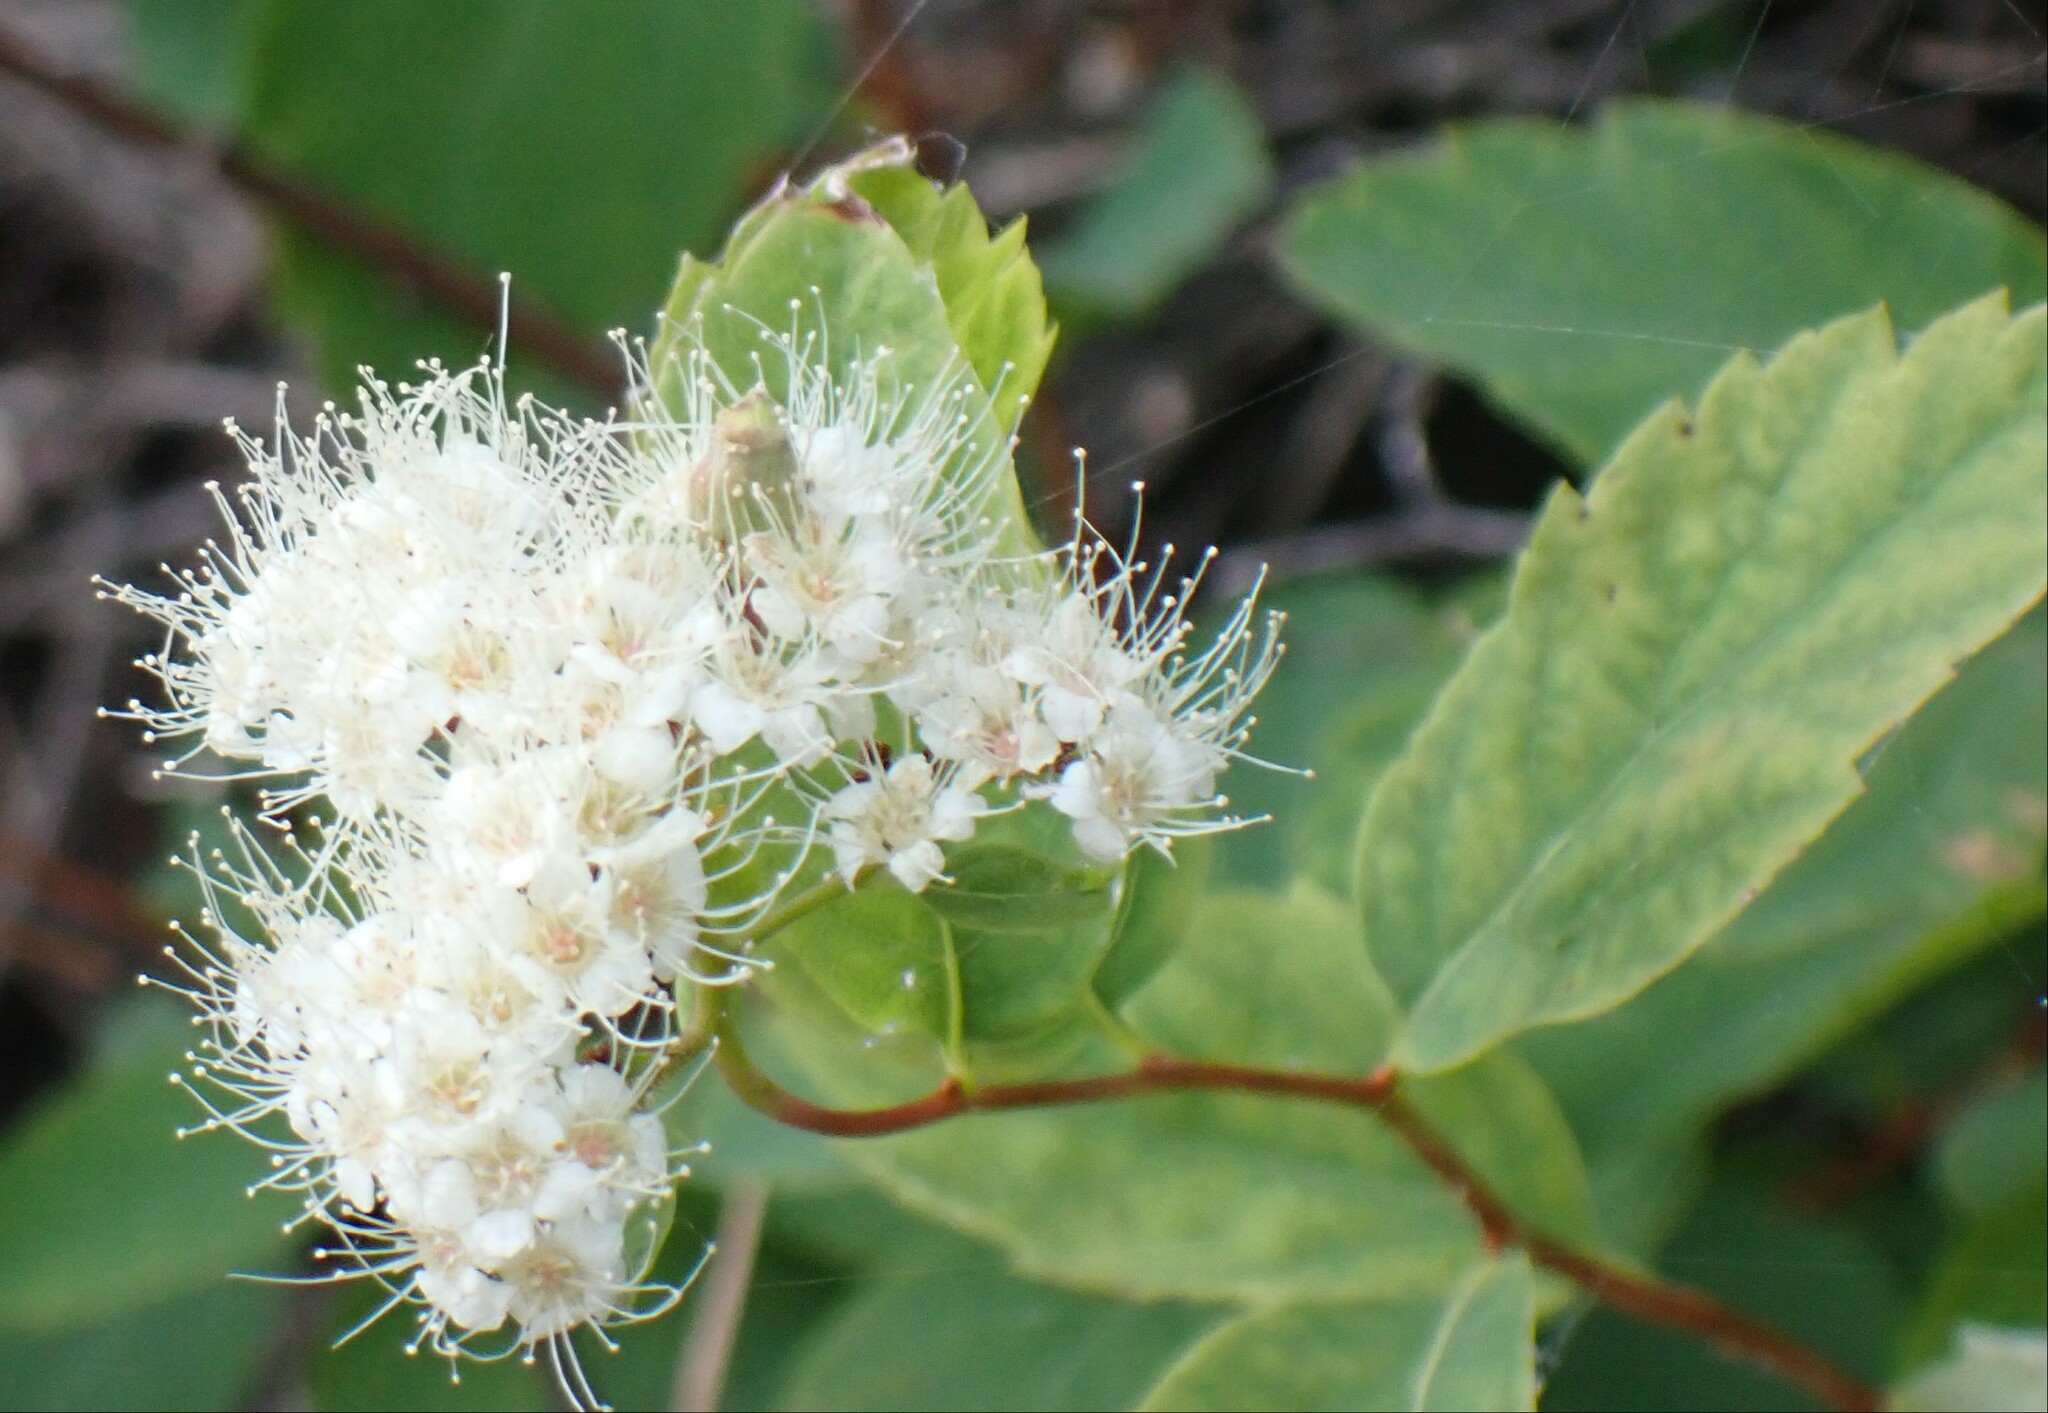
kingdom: Plantae
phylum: Tracheophyta
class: Magnoliopsida
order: Rosales
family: Rosaceae
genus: Spiraea
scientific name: Spiraea lucida
